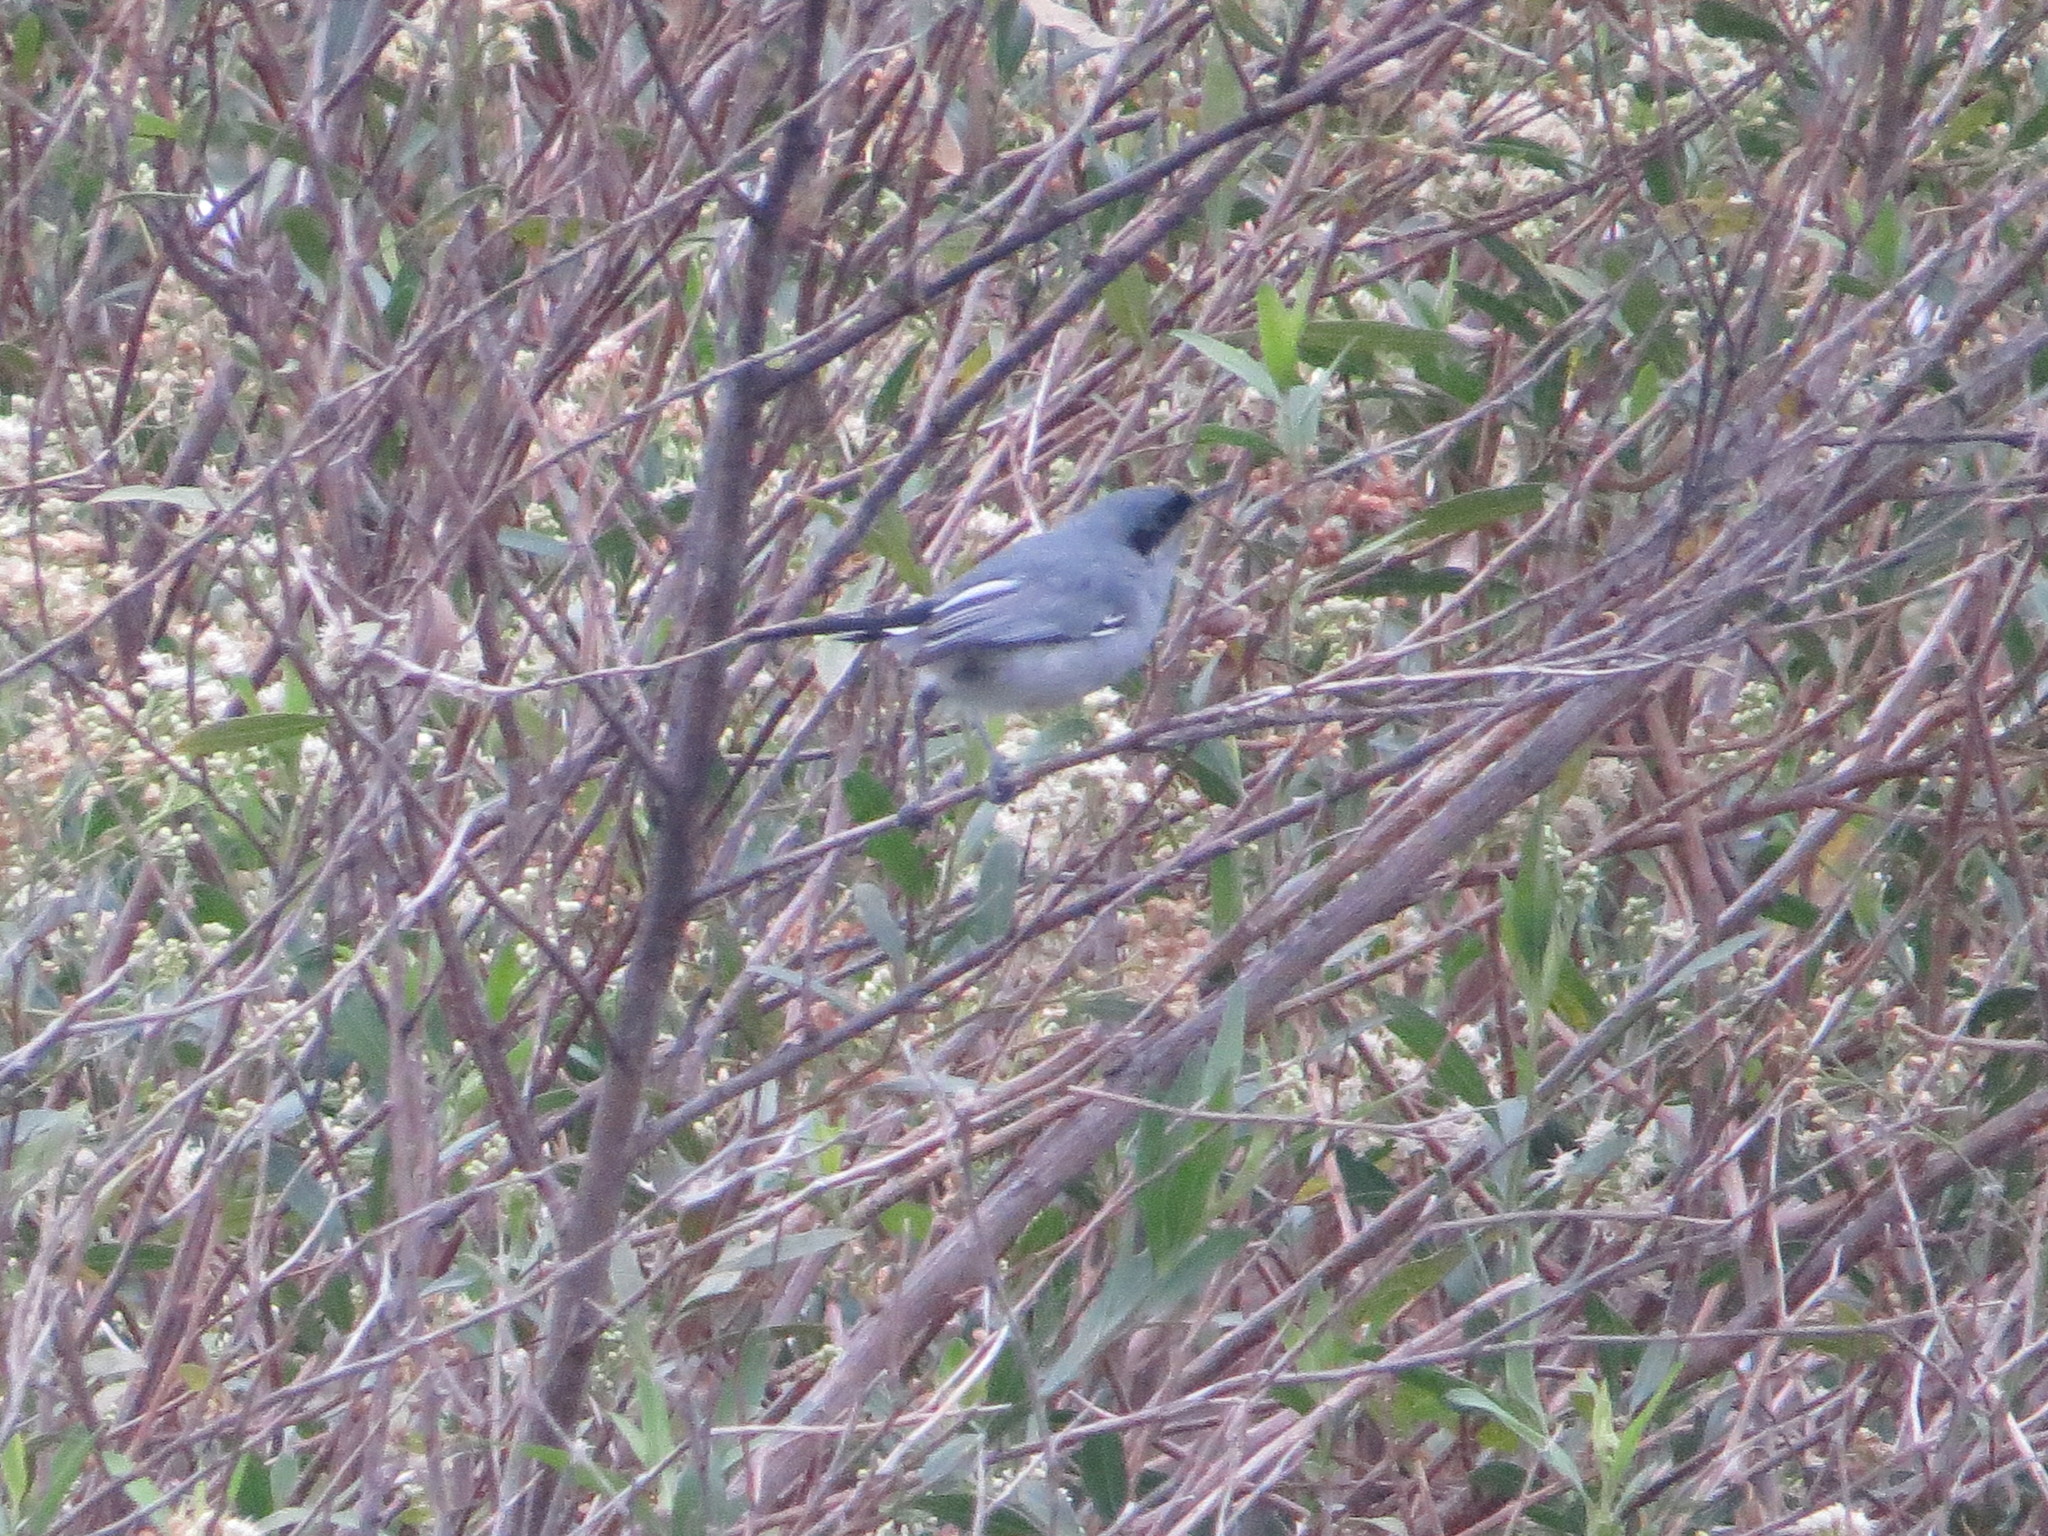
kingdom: Animalia
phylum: Chordata
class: Aves
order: Passeriformes
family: Polioptilidae
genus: Polioptila
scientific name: Polioptila dumicola
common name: Masked gnatcatcher
